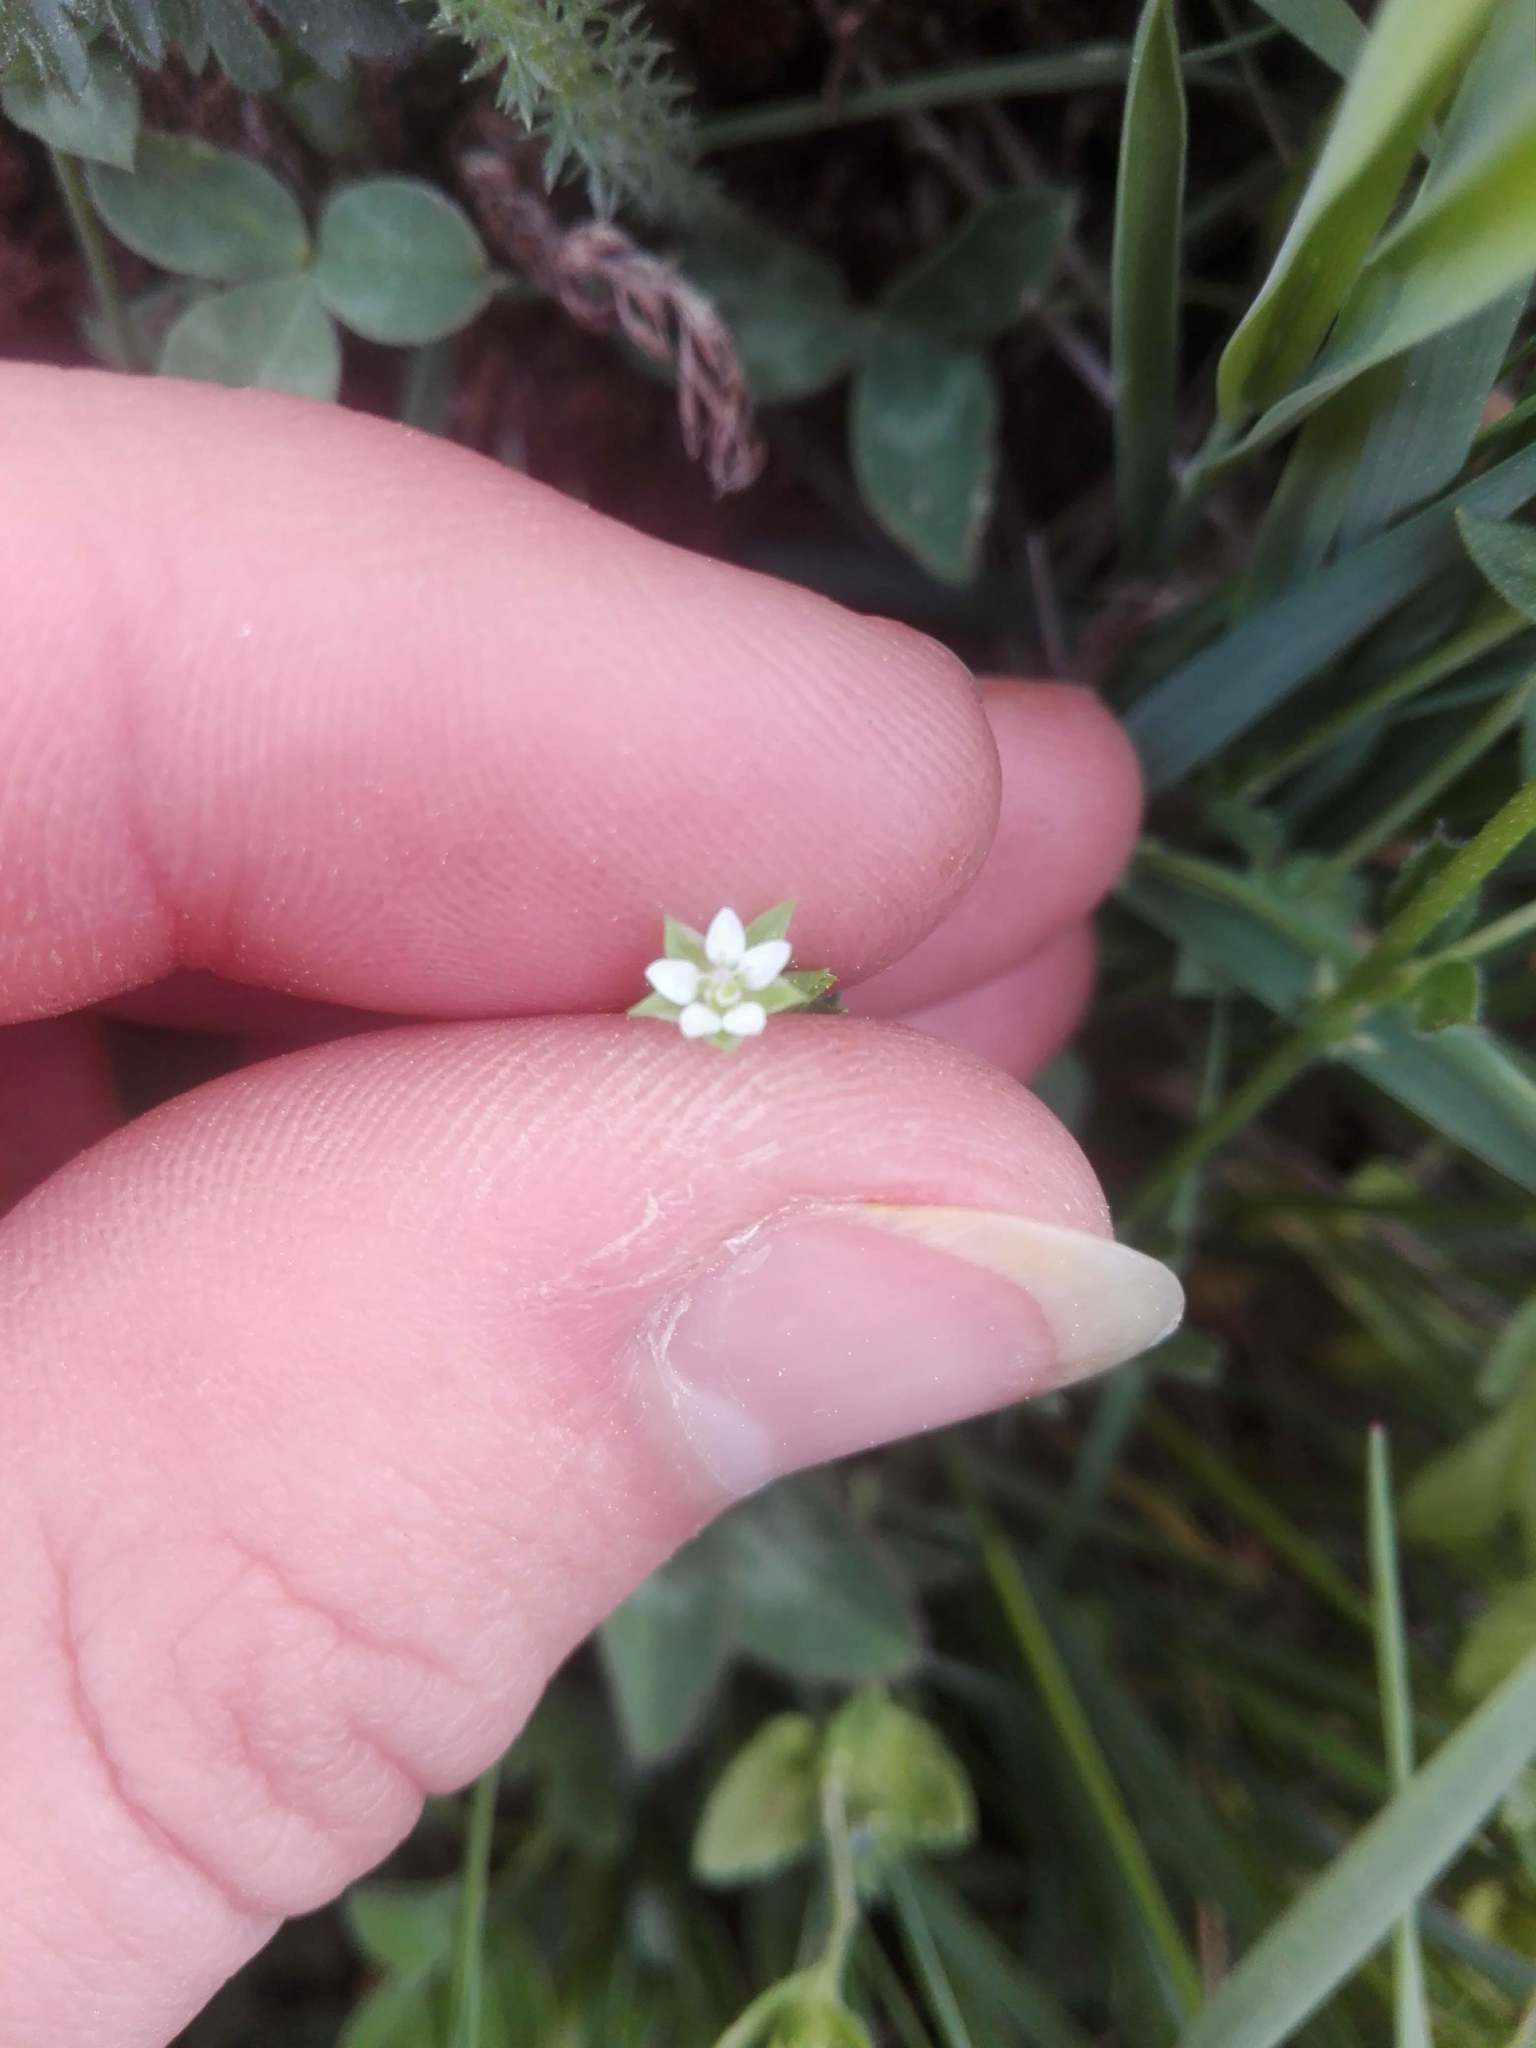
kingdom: Plantae
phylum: Tracheophyta
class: Magnoliopsida
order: Caryophyllales
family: Caryophyllaceae
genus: Arenaria
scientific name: Arenaria serpyllifolia
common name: Thyme-leaved sandwort
